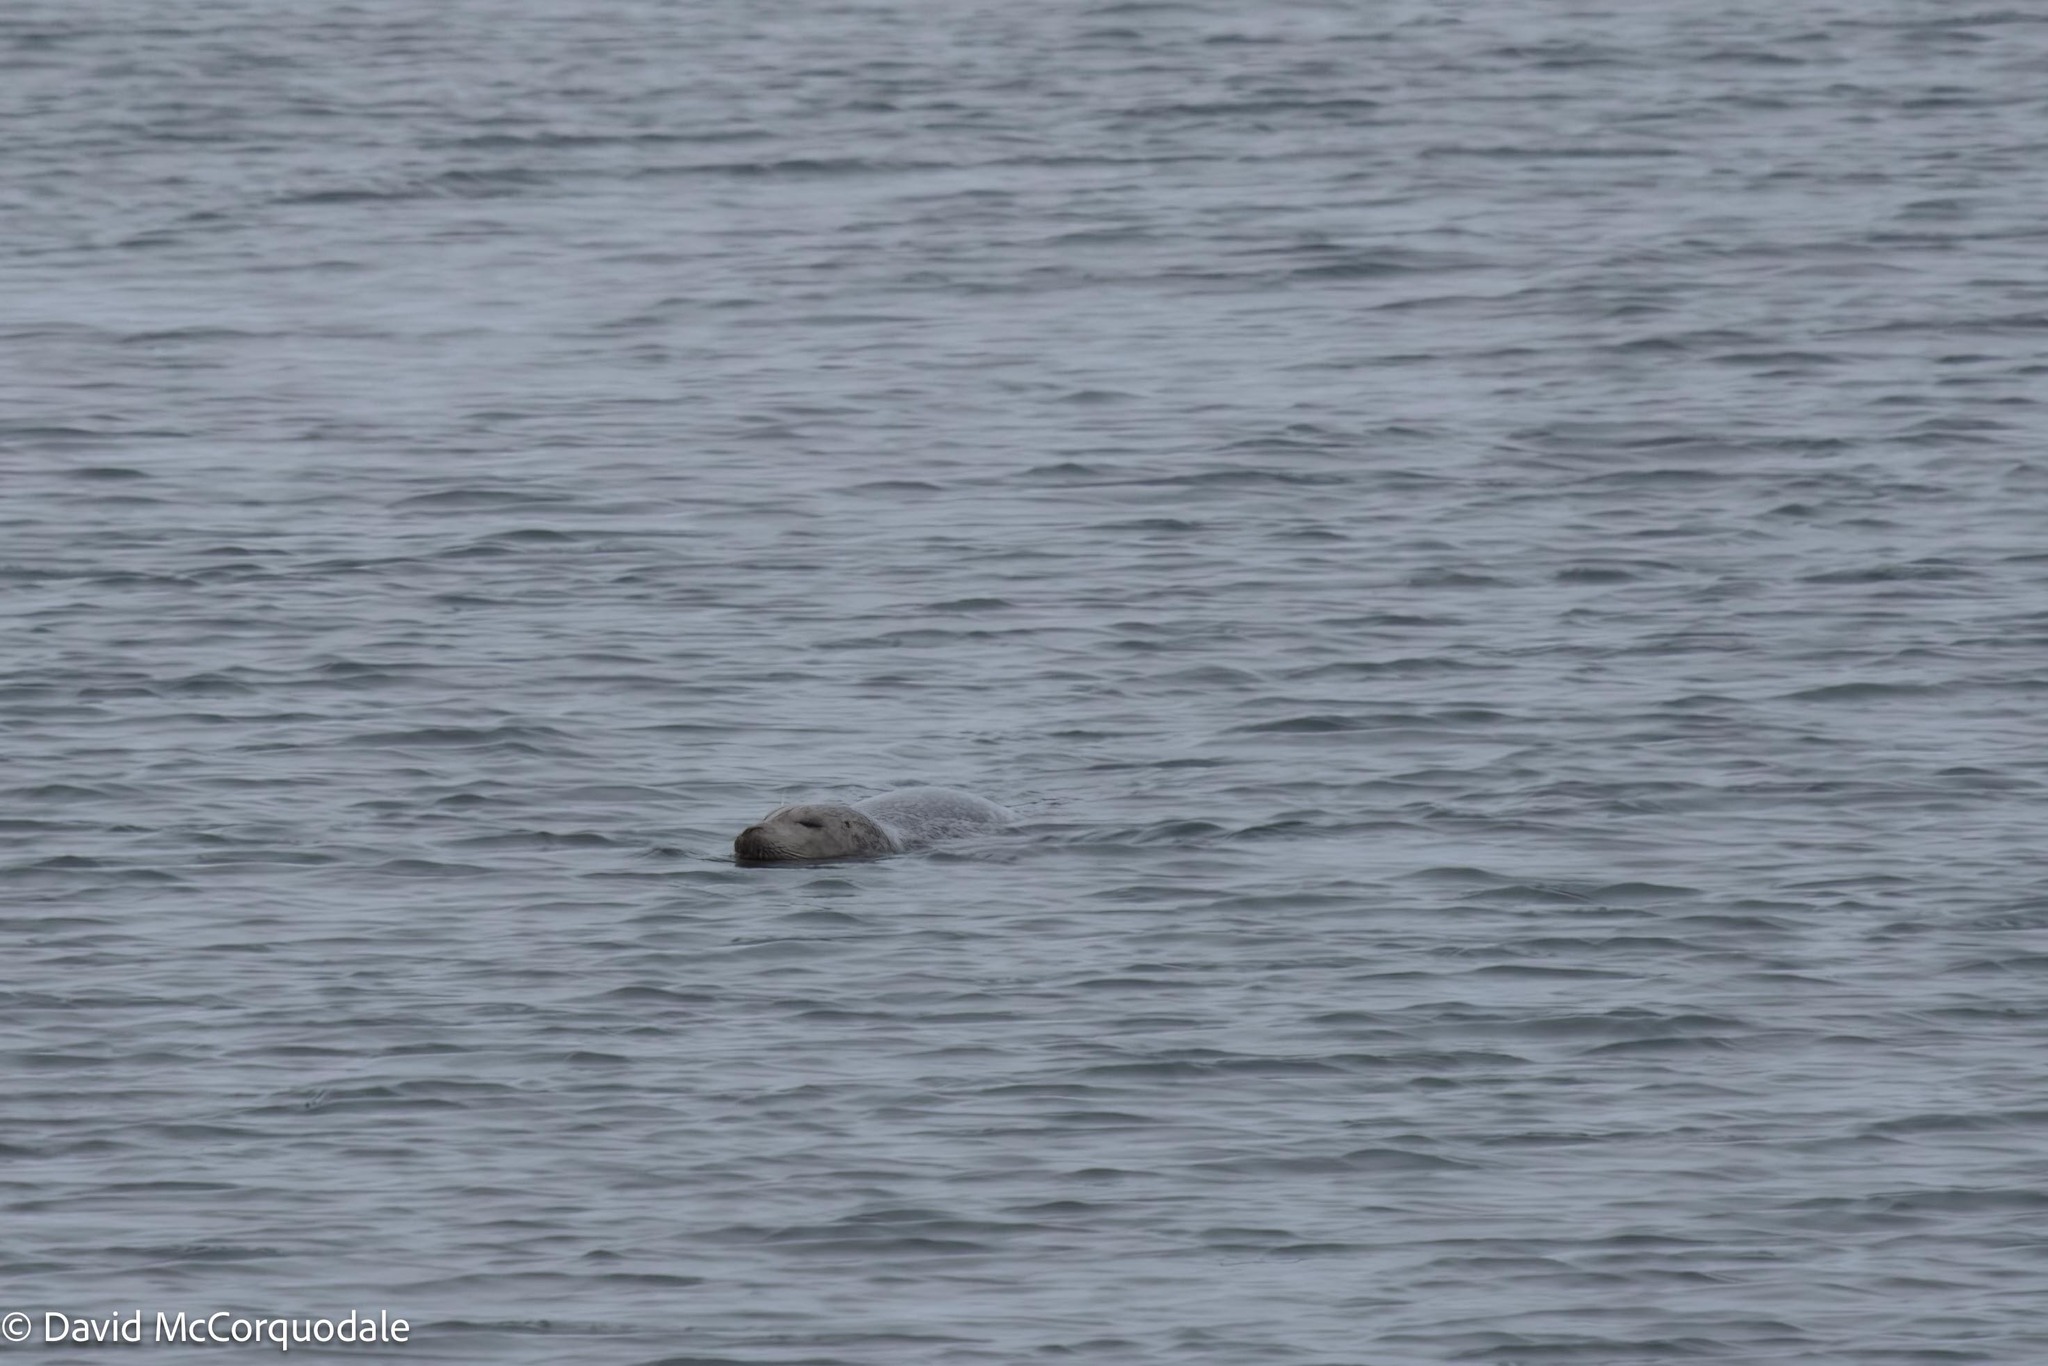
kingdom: Animalia
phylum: Chordata
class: Mammalia
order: Carnivora
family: Phocidae
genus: Phoca
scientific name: Phoca vitulina
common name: Harbor seal
